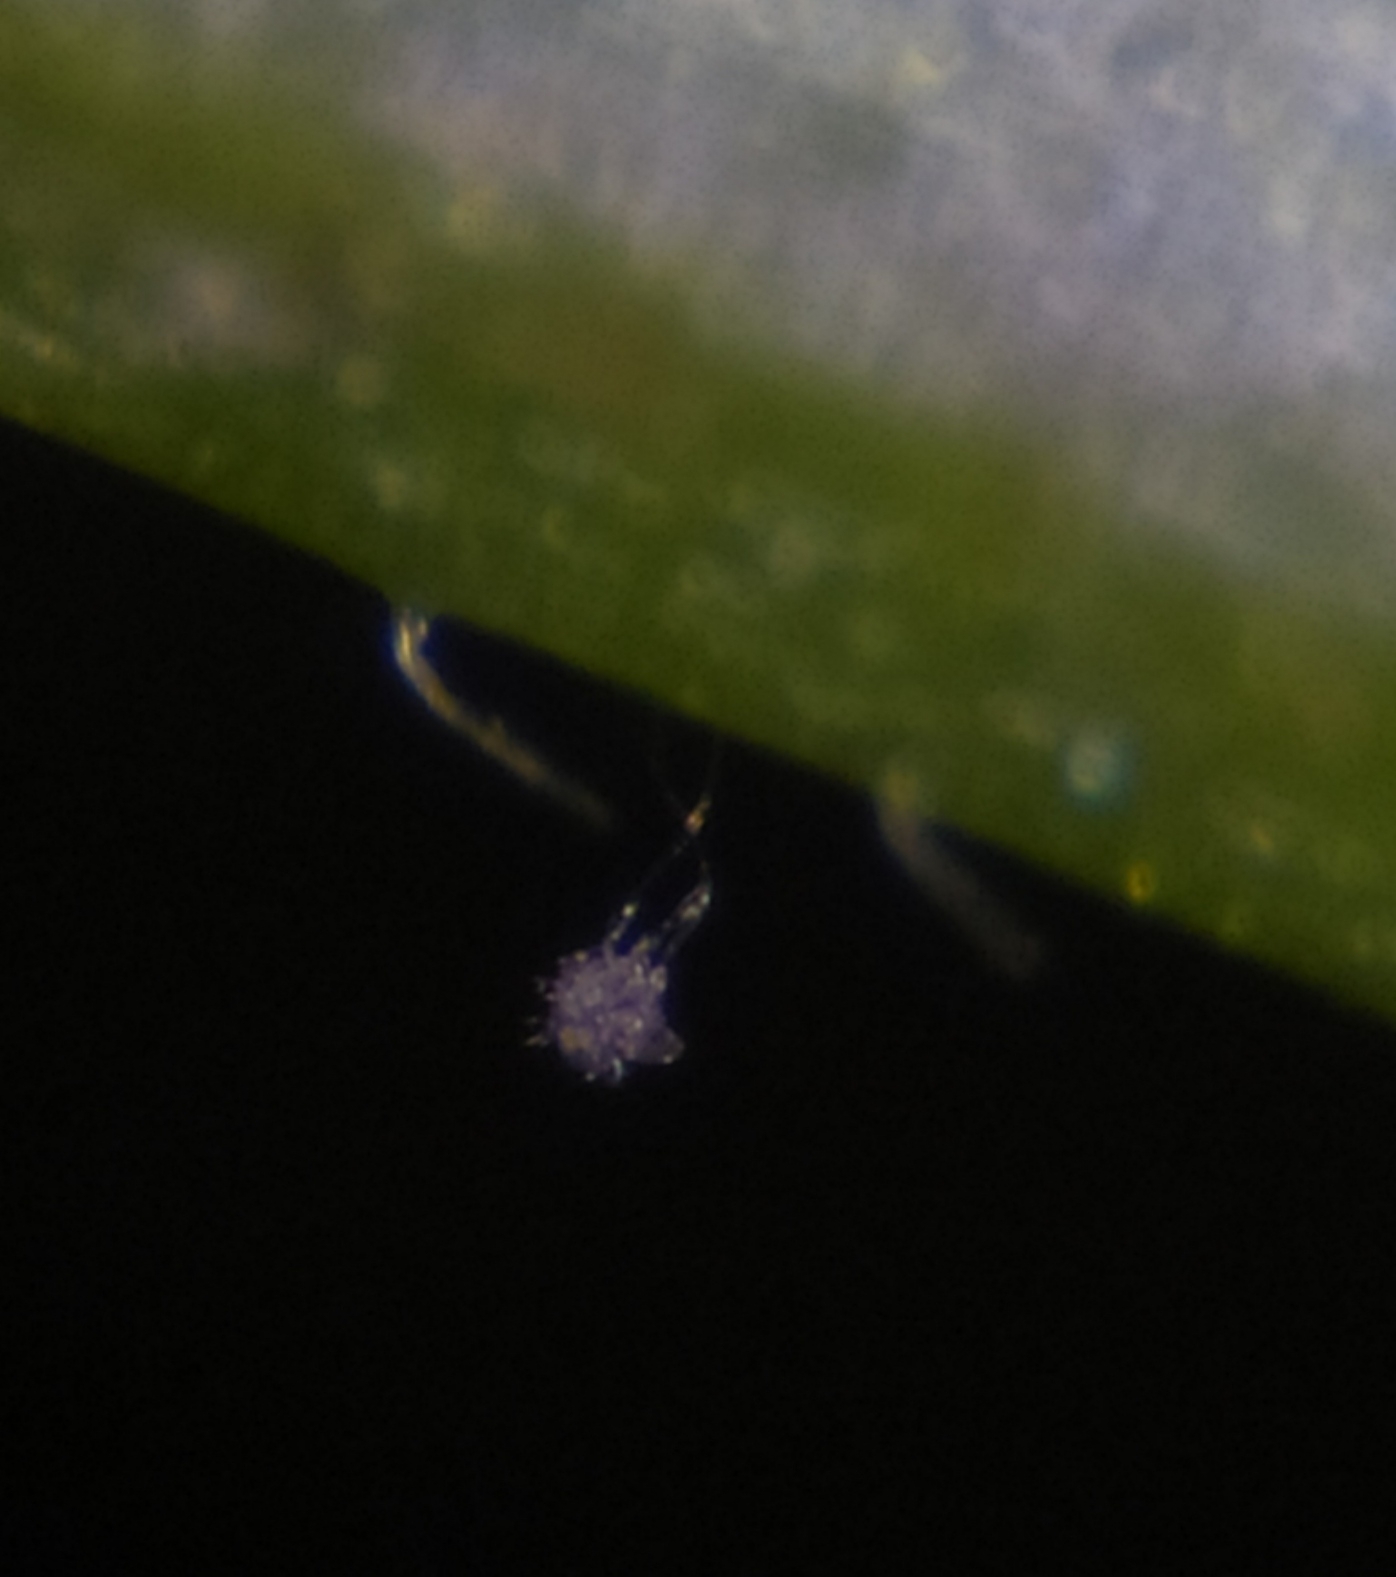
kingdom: Chromista
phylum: Oomycota
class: Peronosporea
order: Peronosporales
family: Peronosporaceae
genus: Peronospora
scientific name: Peronospora viciae
